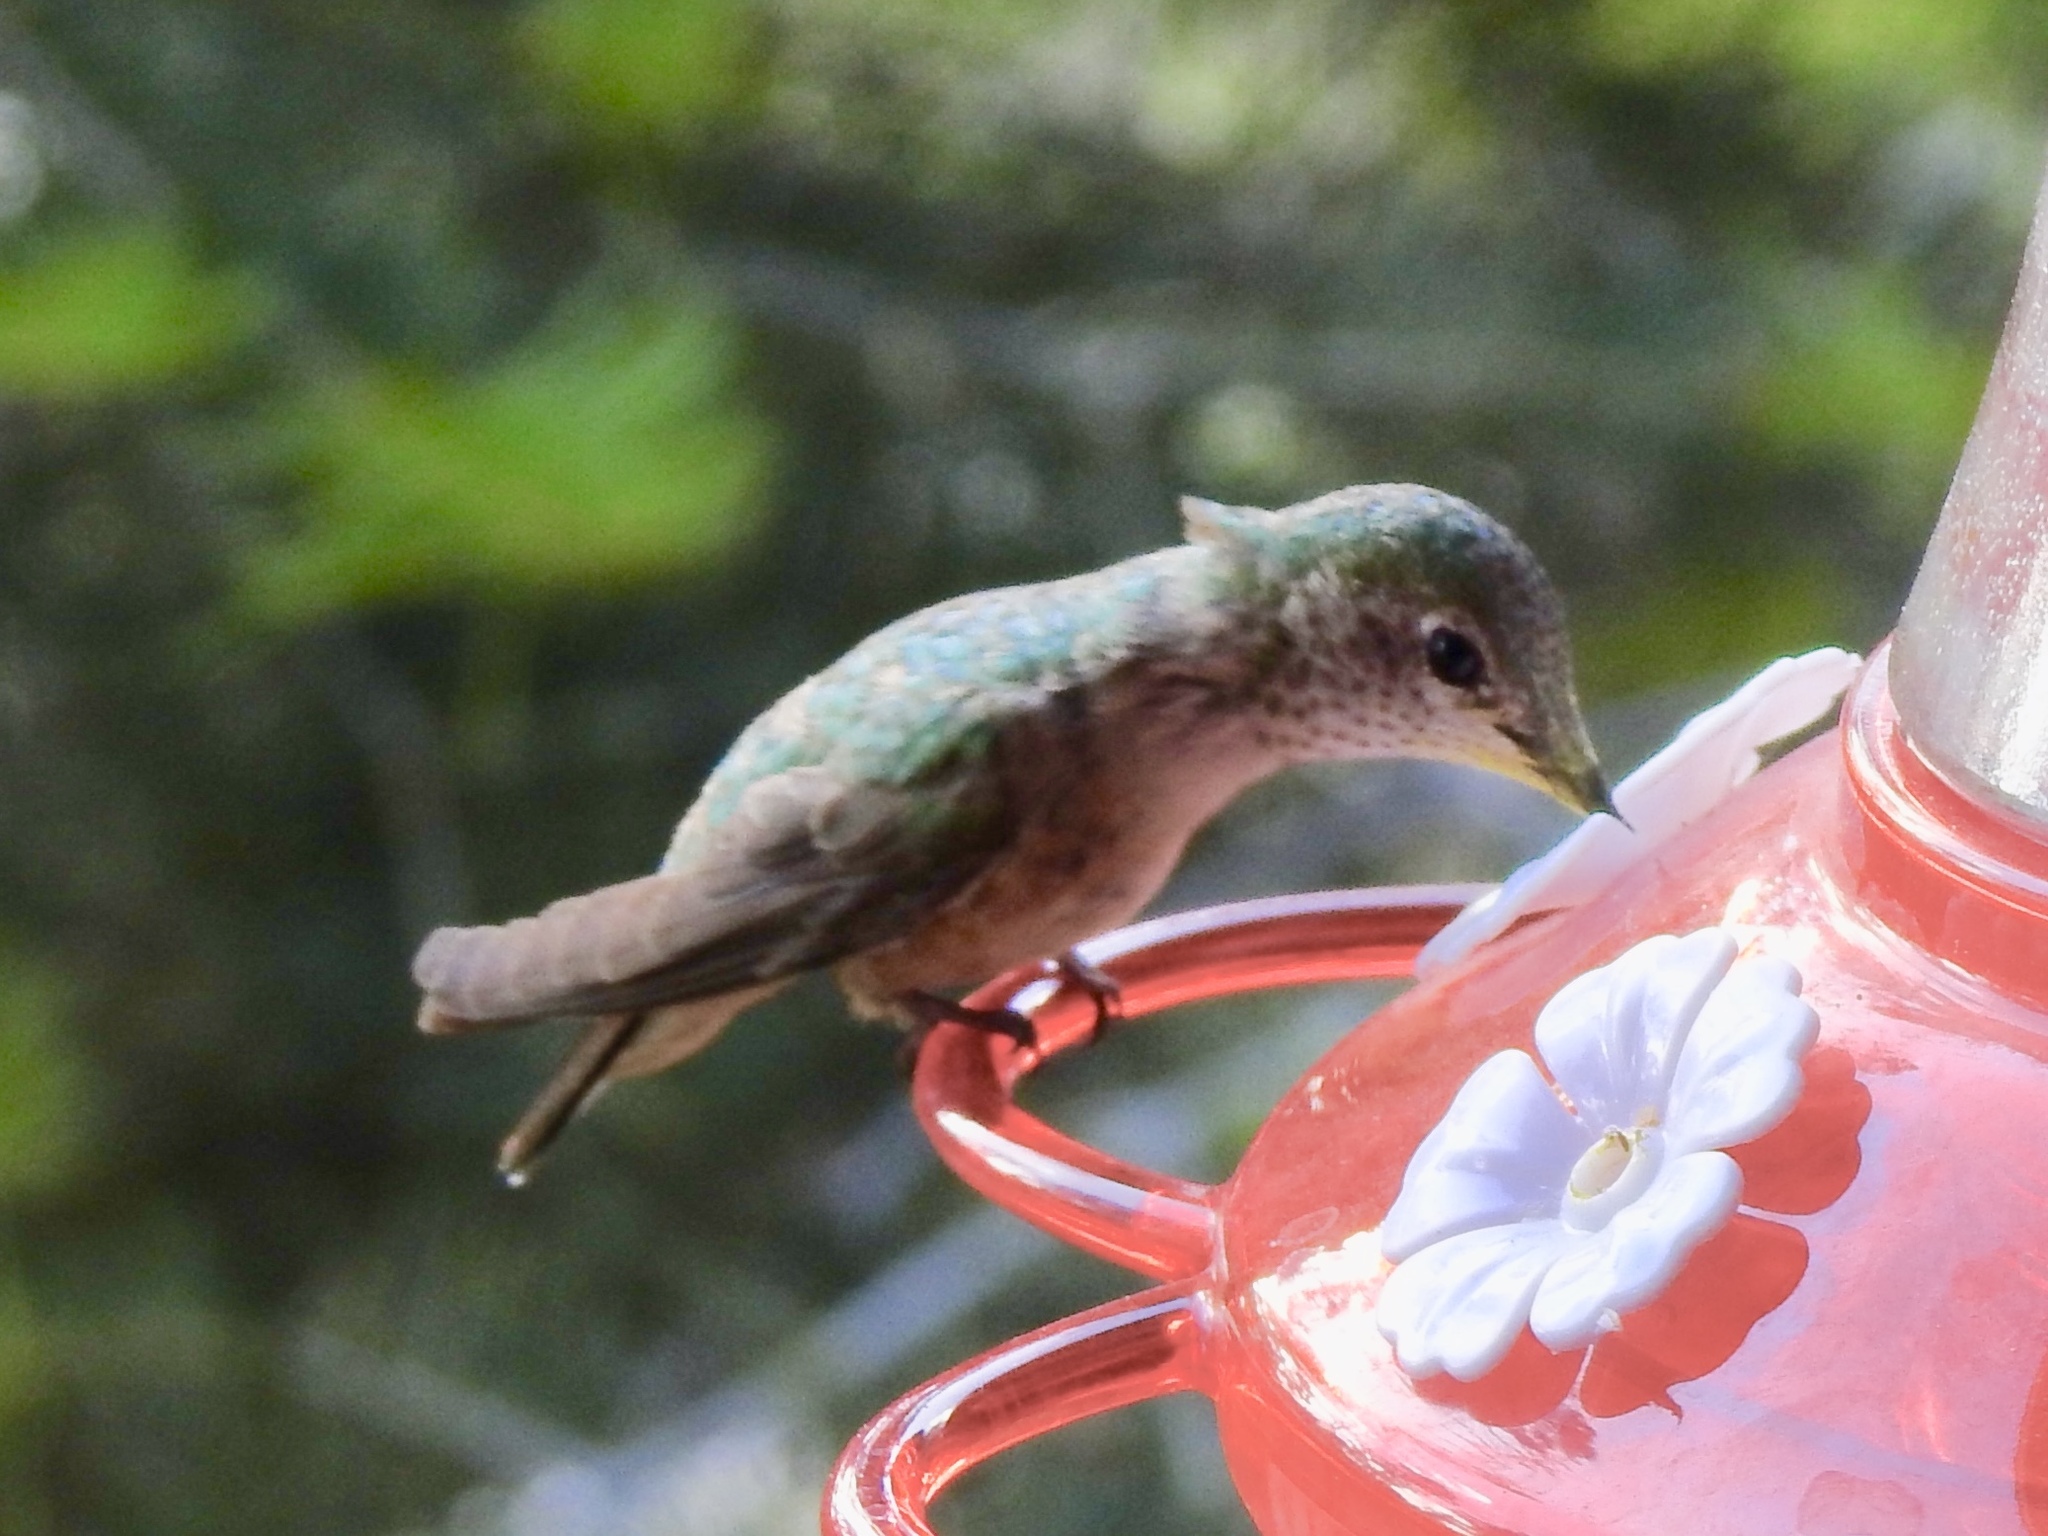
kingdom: Animalia
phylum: Chordata
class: Aves
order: Apodiformes
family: Trochilidae
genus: Selasphorus
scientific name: Selasphorus platycercus
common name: Broad-tailed hummingbird
